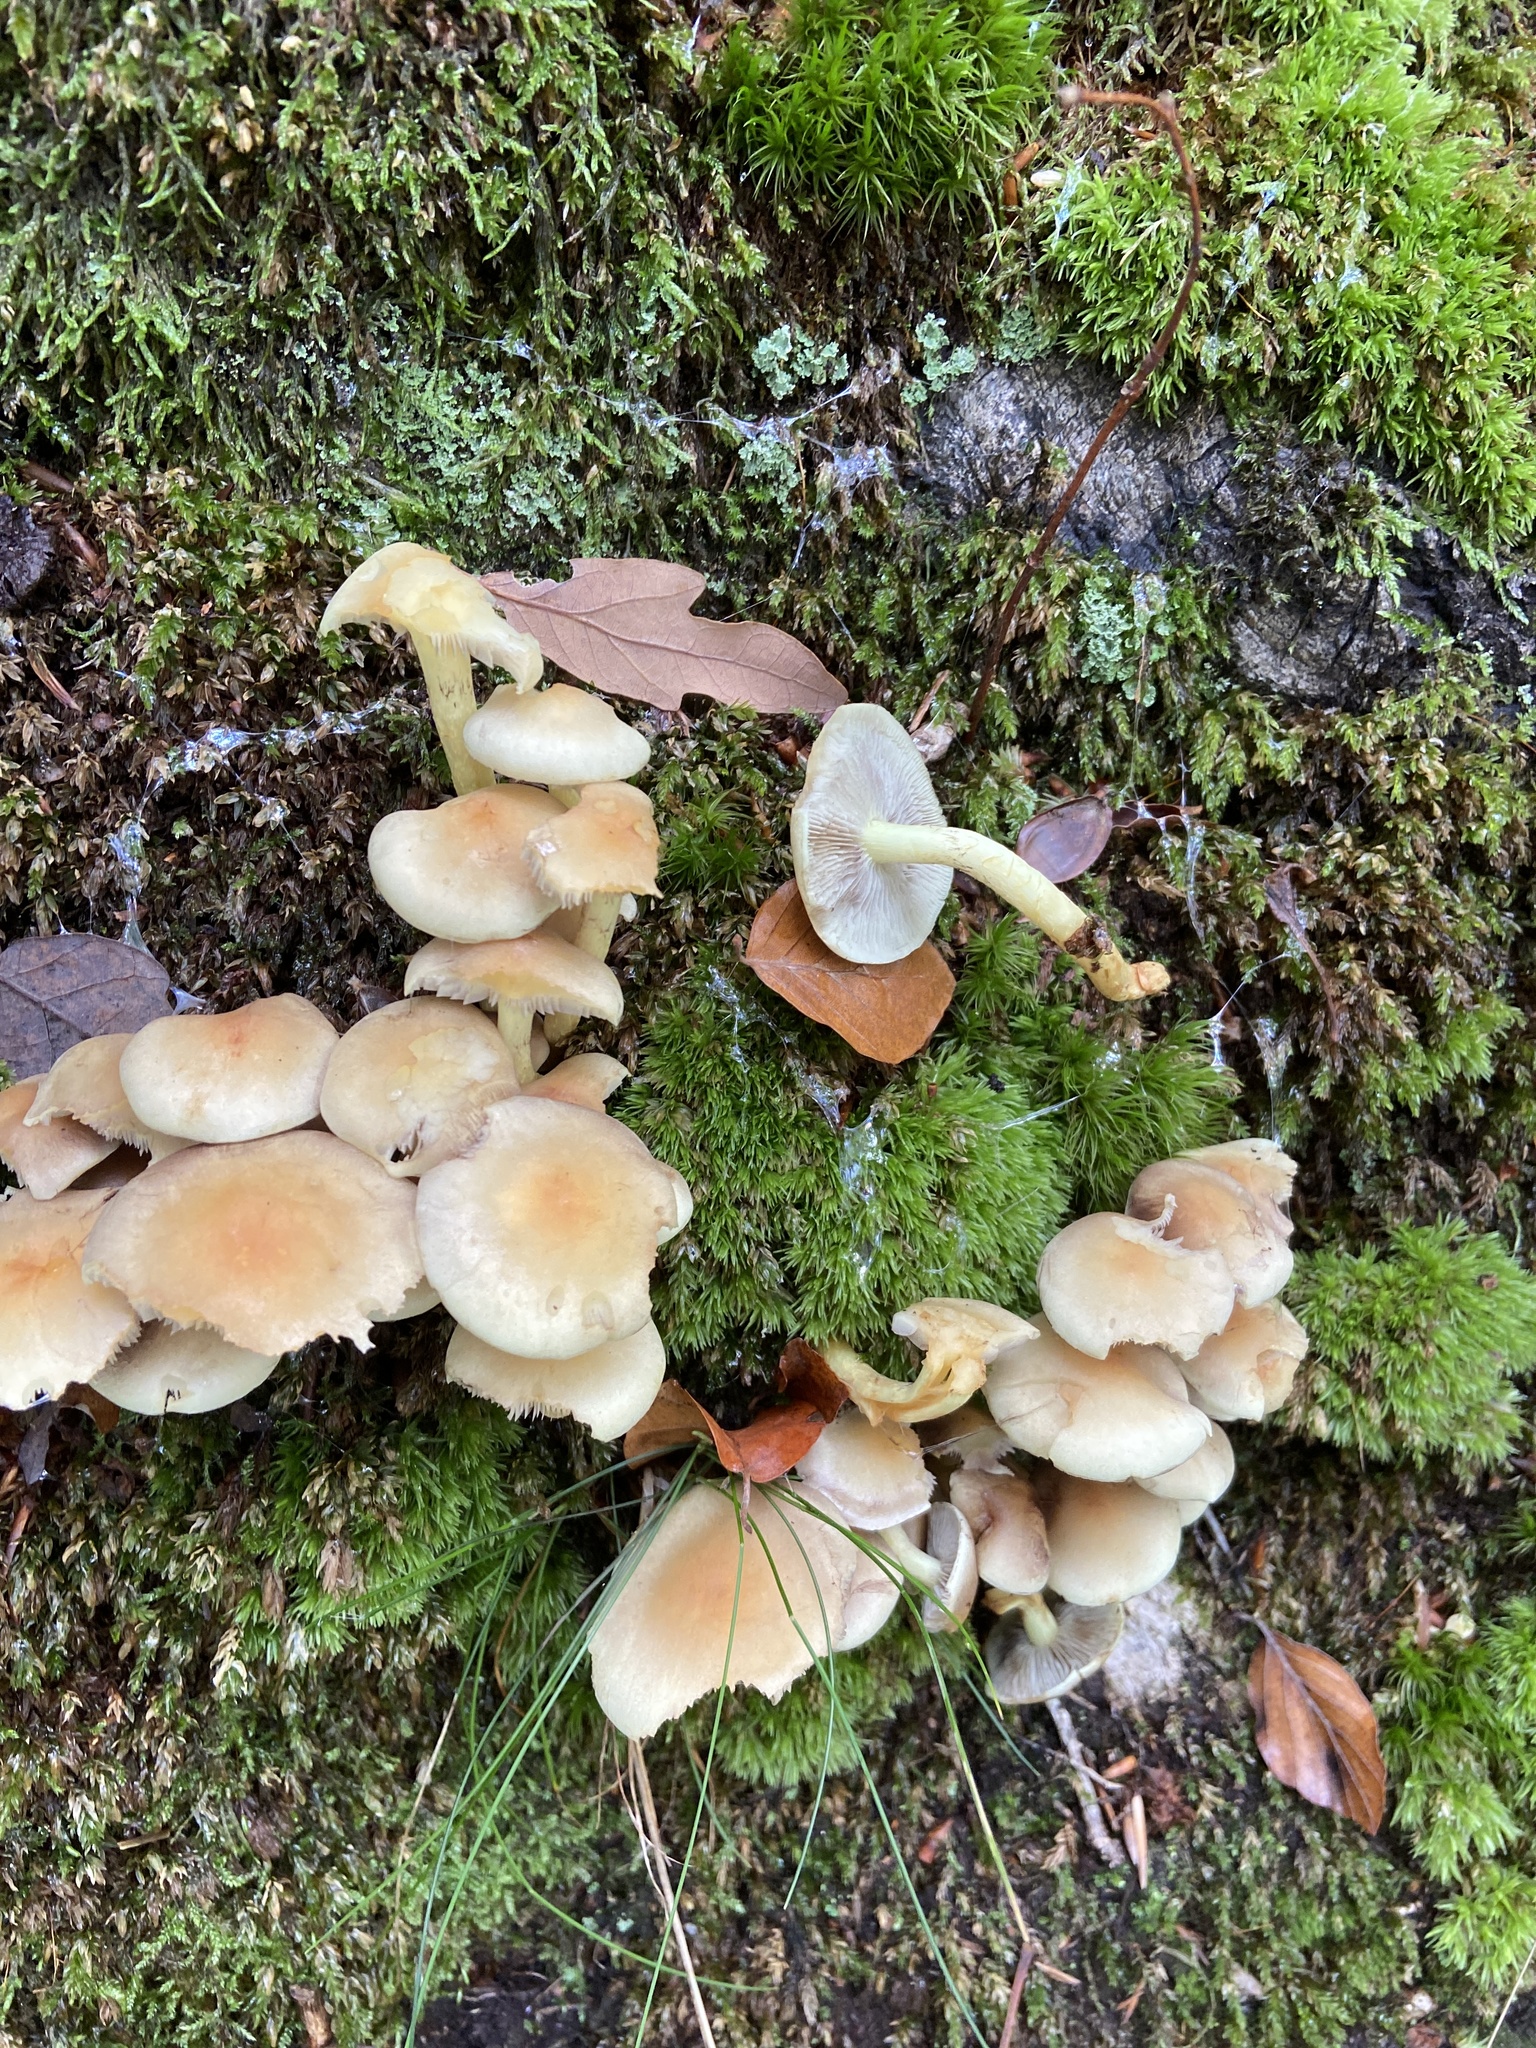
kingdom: Fungi
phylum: Basidiomycota
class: Agaricomycetes
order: Agaricales
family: Strophariaceae
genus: Hypholoma
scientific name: Hypholoma fasciculare
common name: Sulphur tuft
